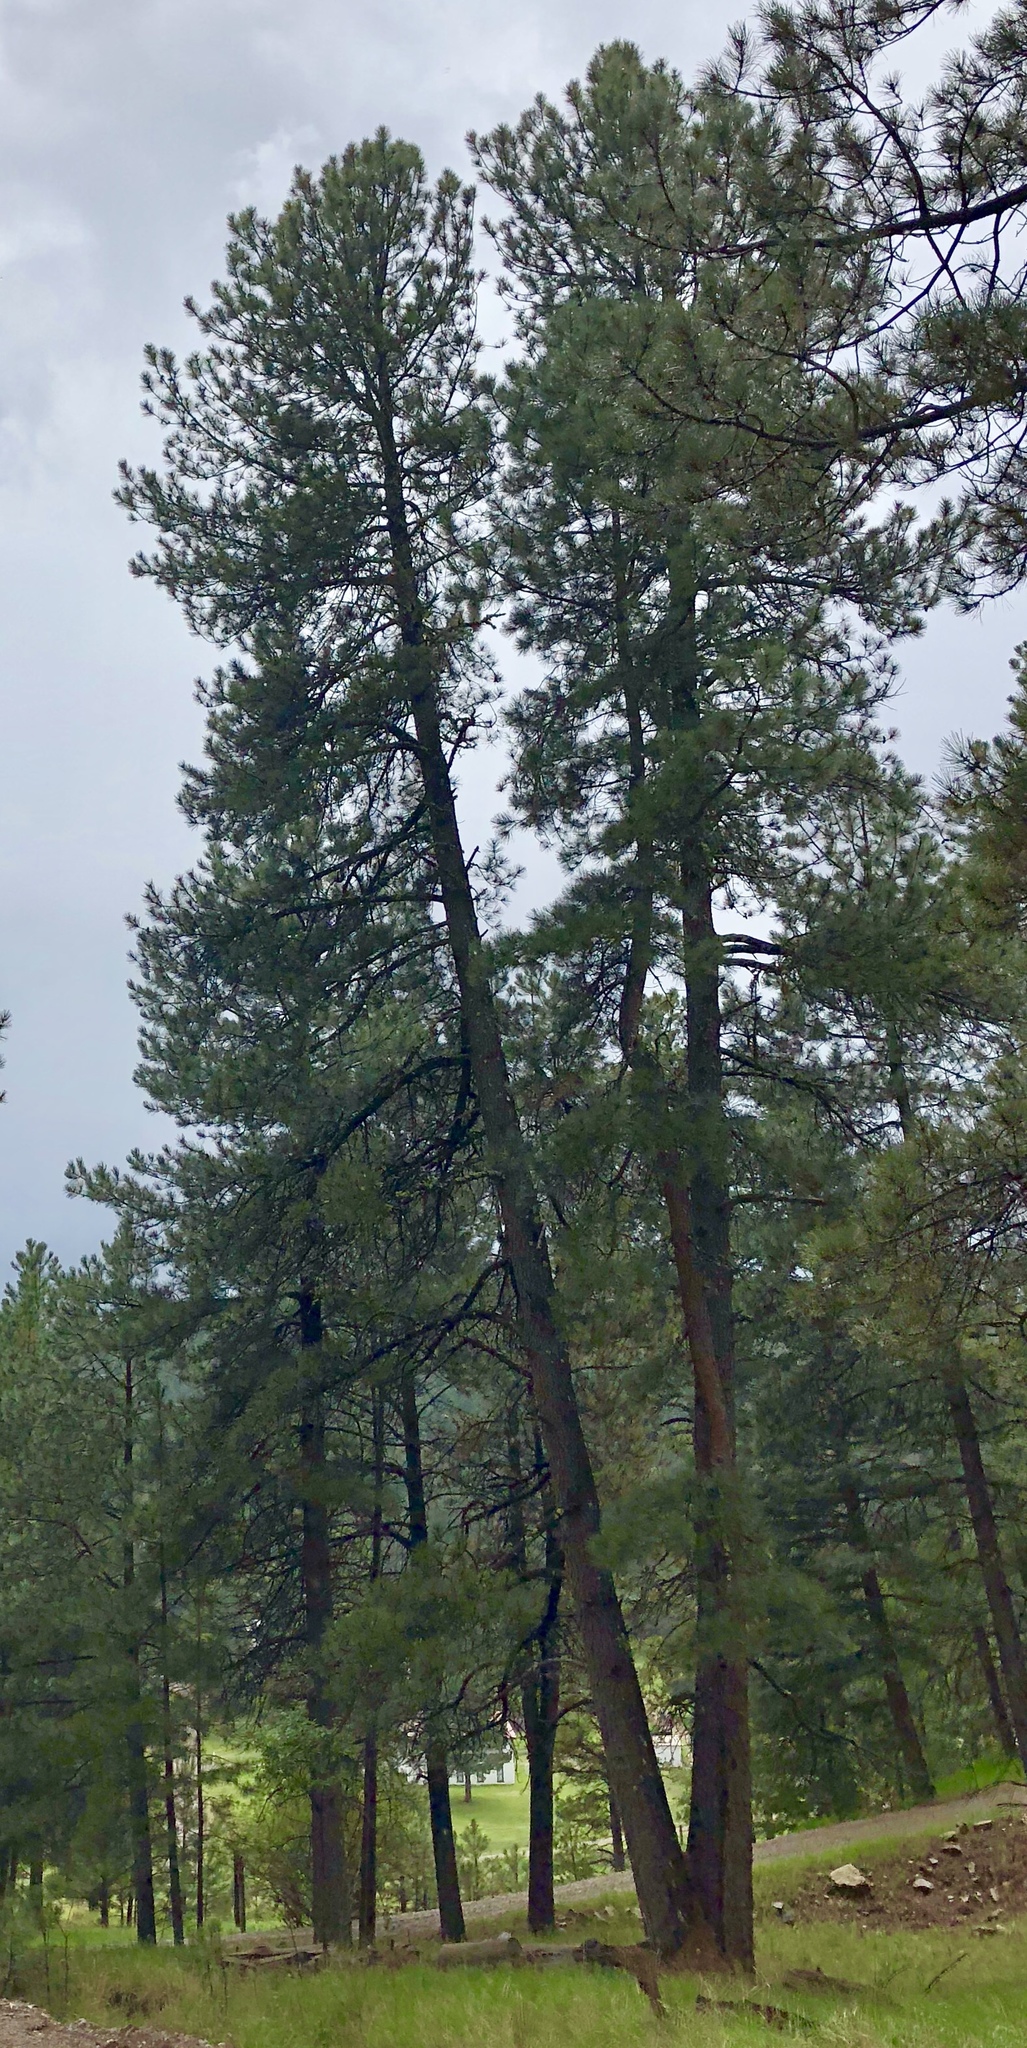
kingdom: Plantae
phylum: Tracheophyta
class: Pinopsida
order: Pinales
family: Pinaceae
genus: Pinus
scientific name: Pinus ponderosa
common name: Western yellow-pine
